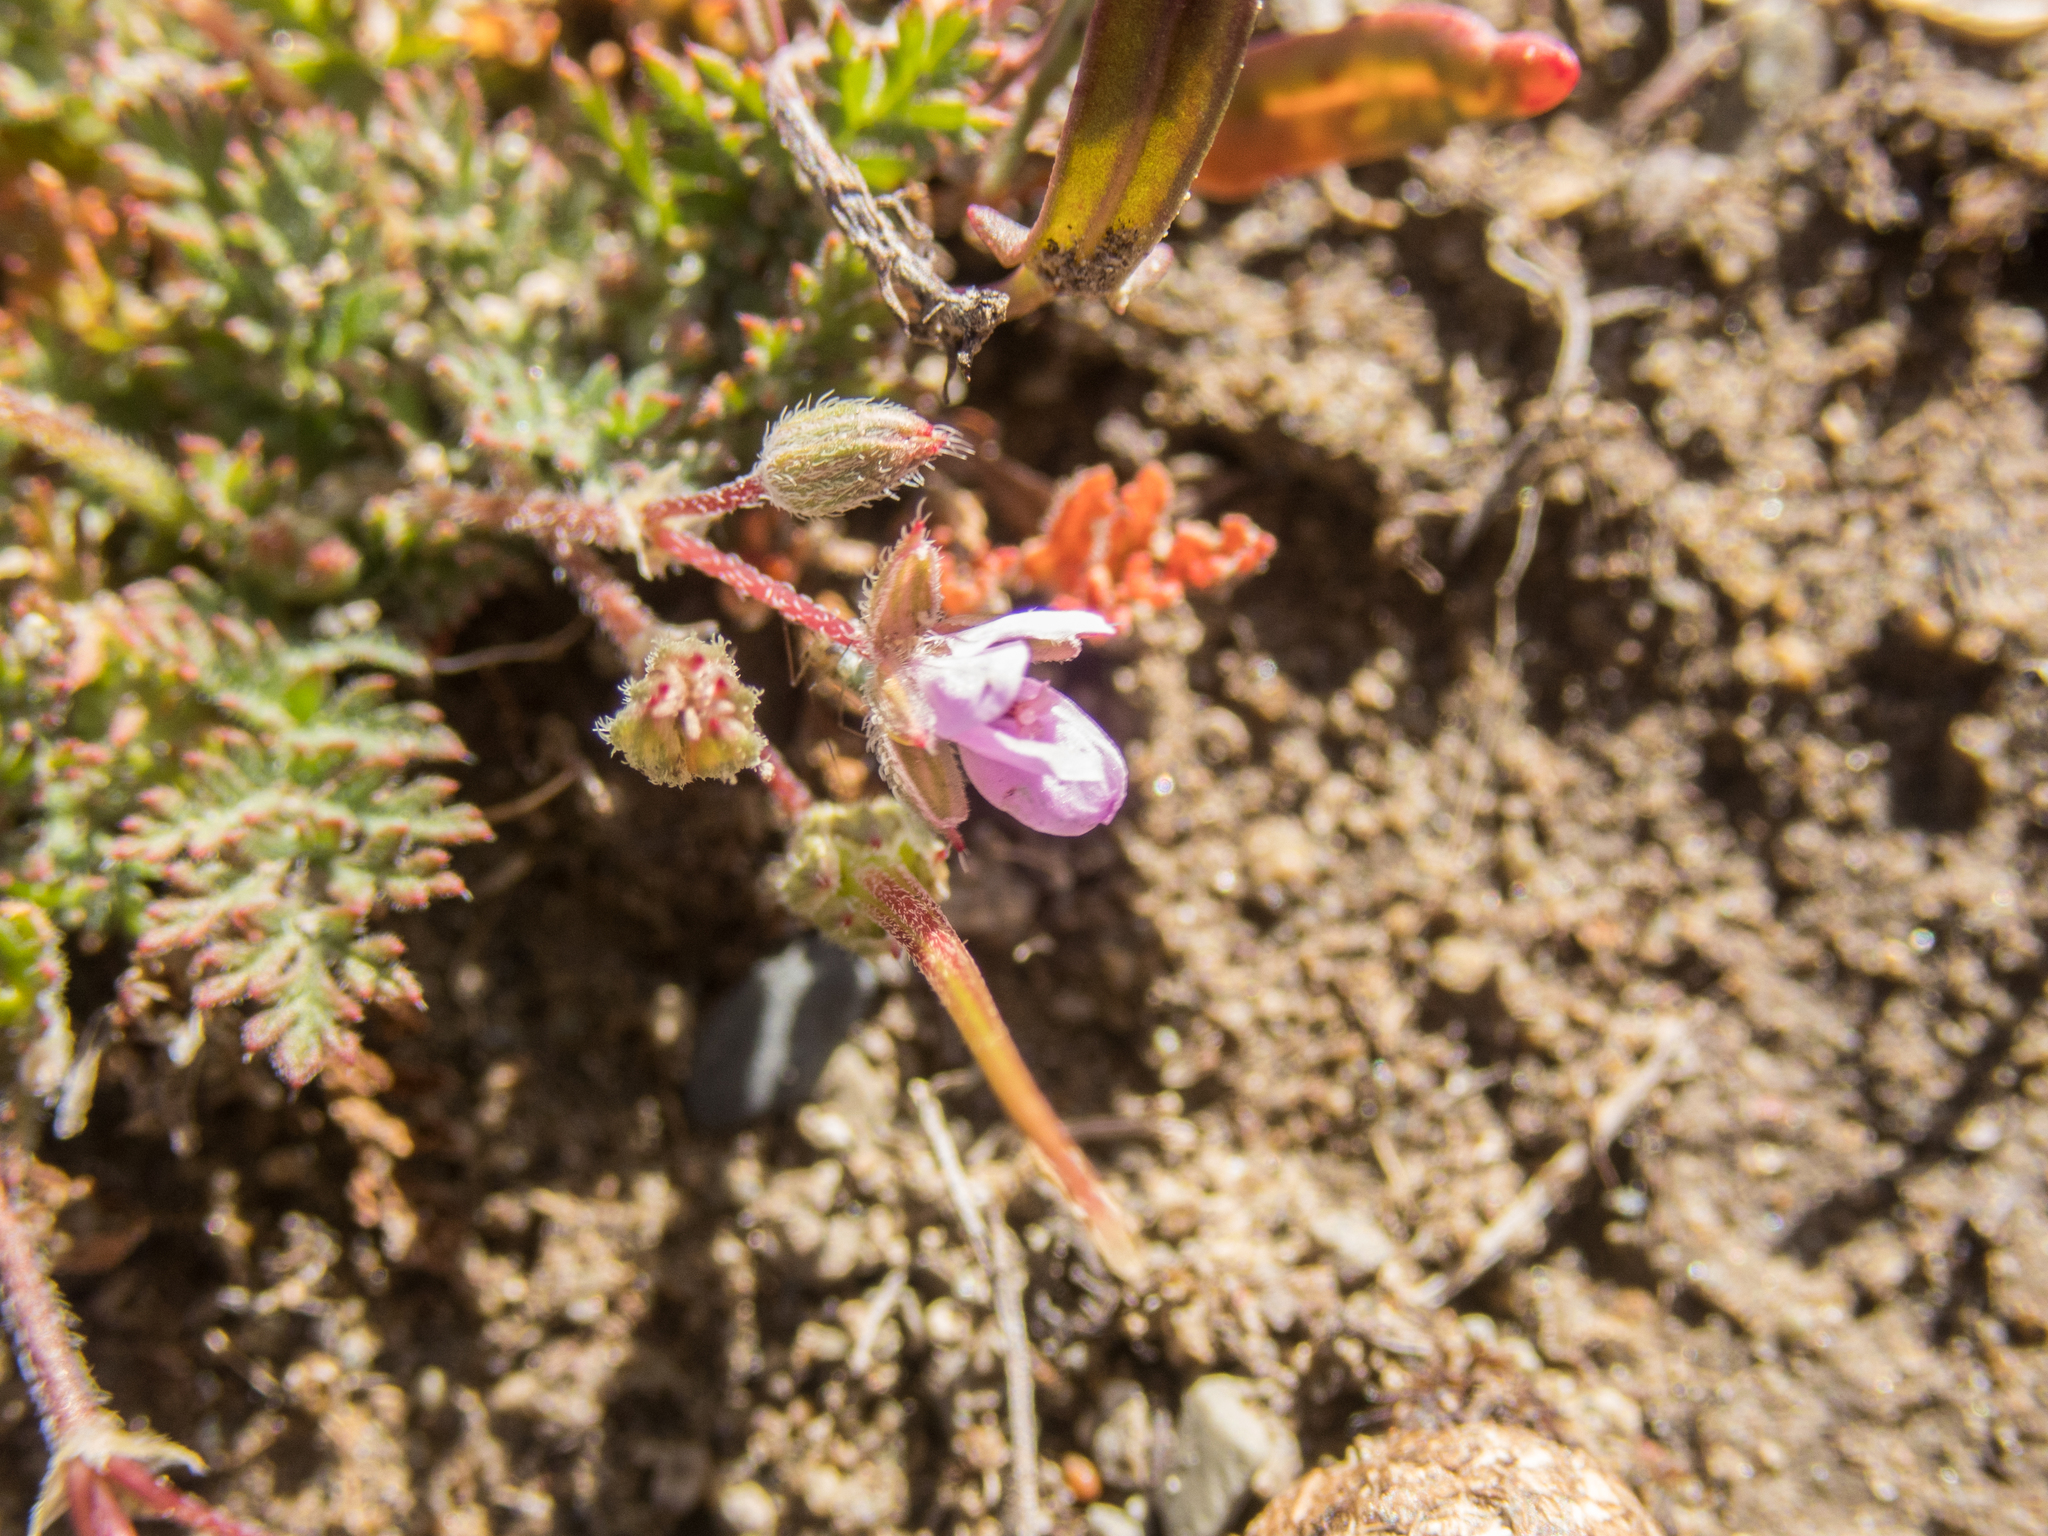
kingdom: Plantae
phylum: Tracheophyta
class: Magnoliopsida
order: Geraniales
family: Geraniaceae
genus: Erodium
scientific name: Erodium cicutarium
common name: Common stork's-bill
